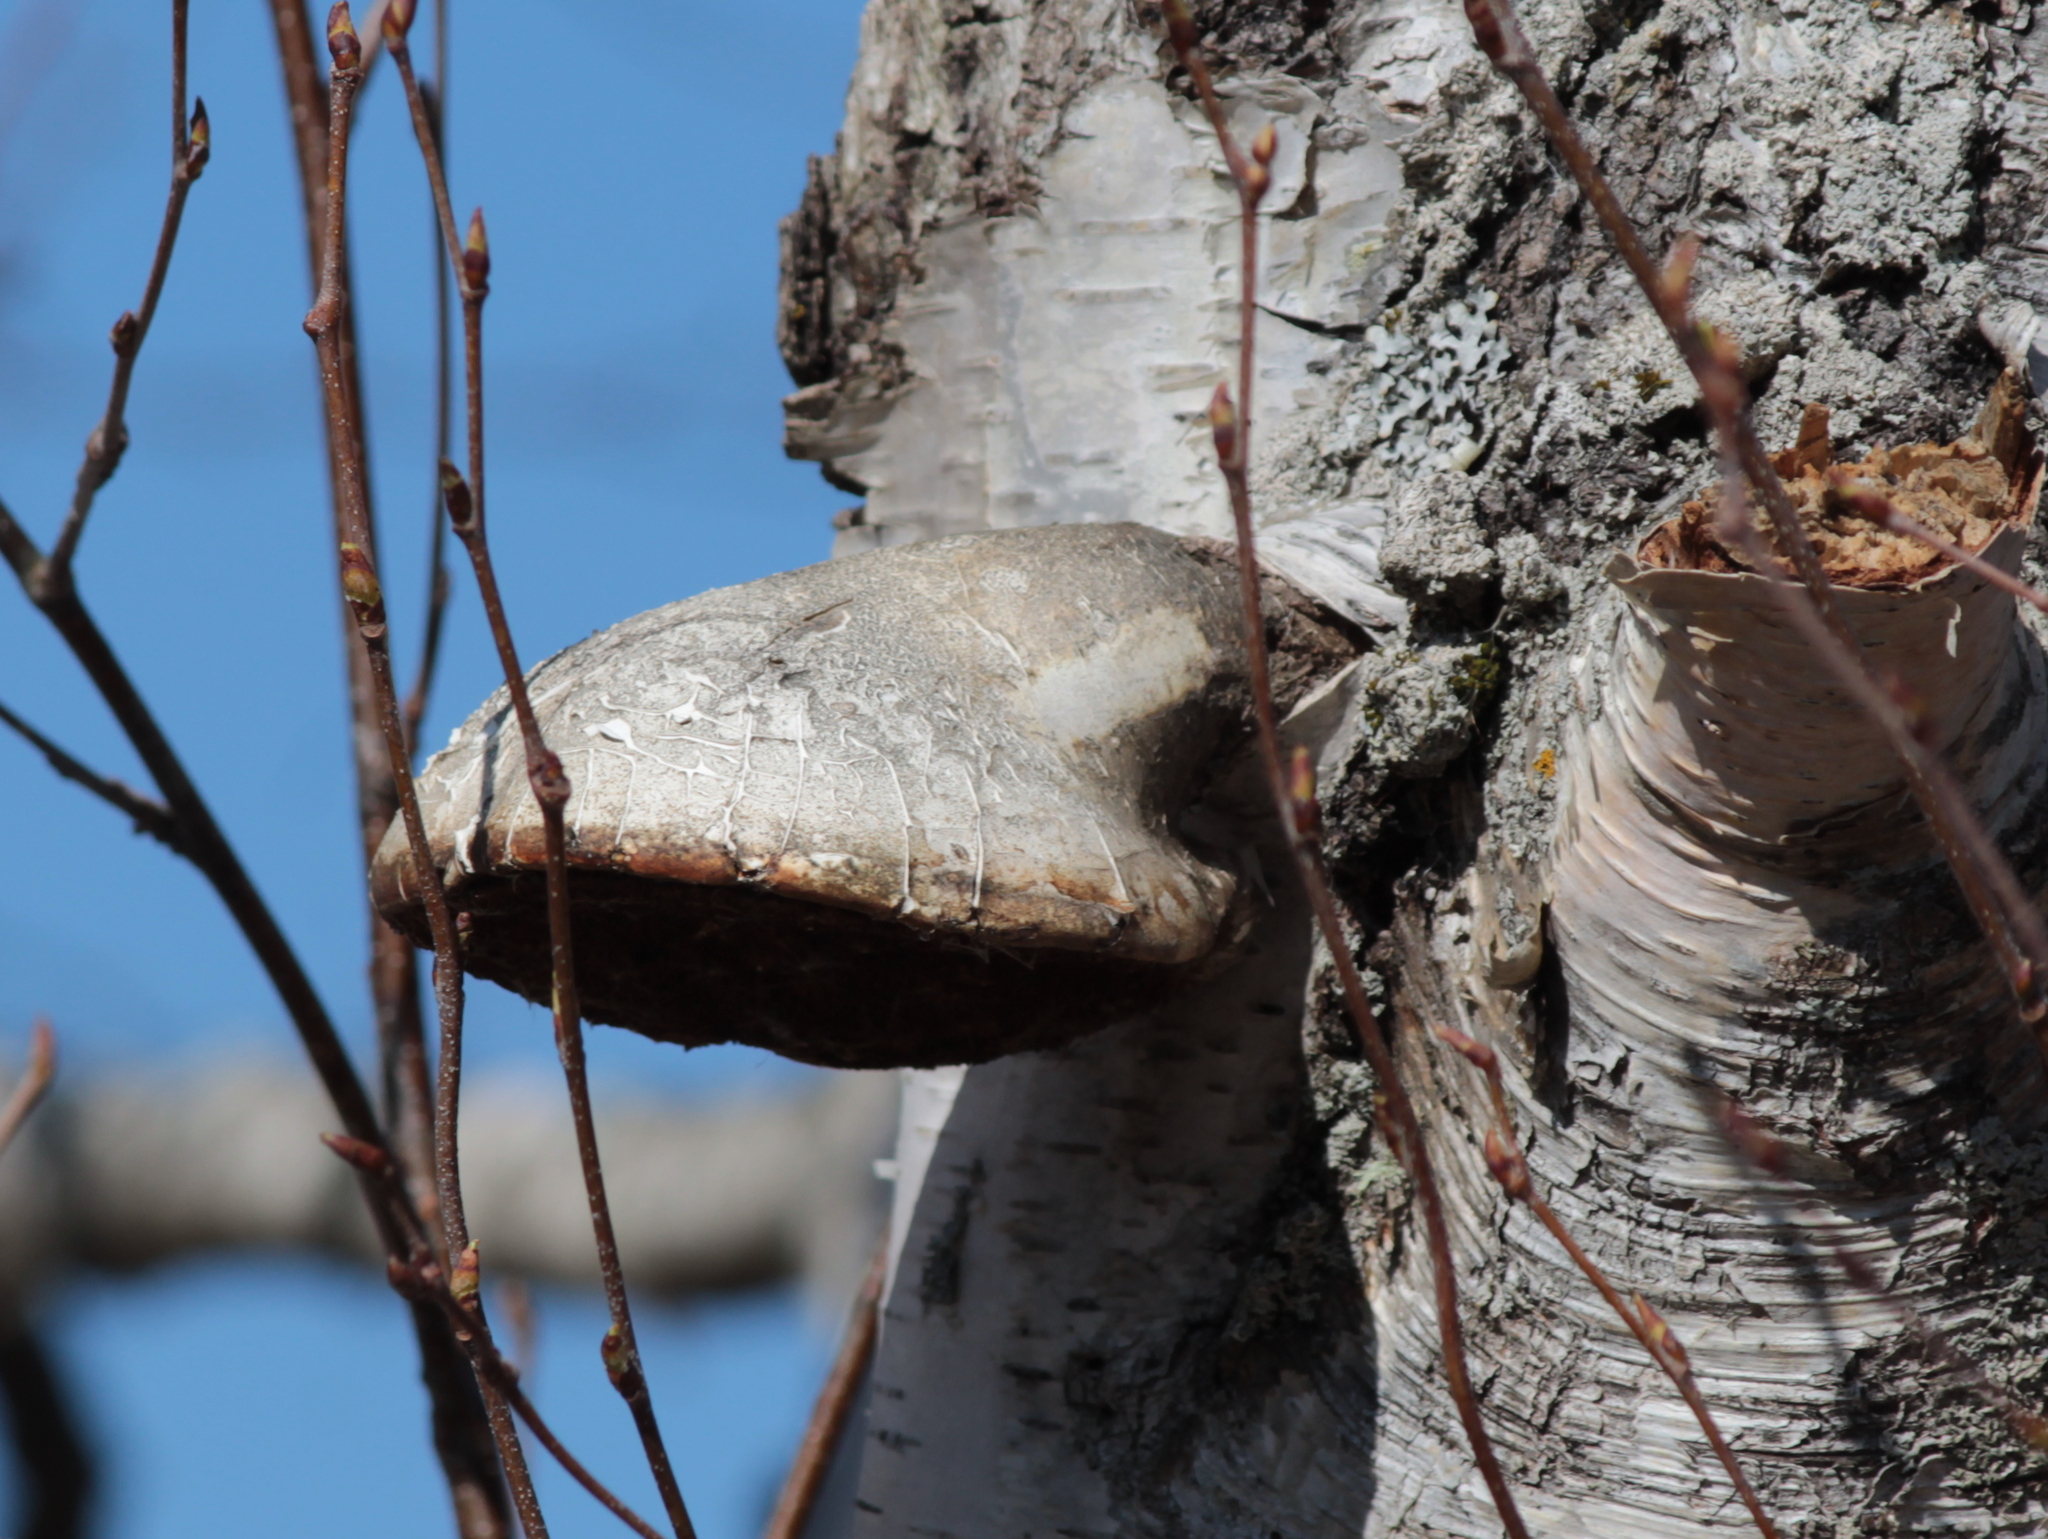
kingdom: Fungi
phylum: Basidiomycota
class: Agaricomycetes
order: Polyporales
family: Fomitopsidaceae
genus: Fomitopsis
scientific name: Fomitopsis betulina
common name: Birch polypore
